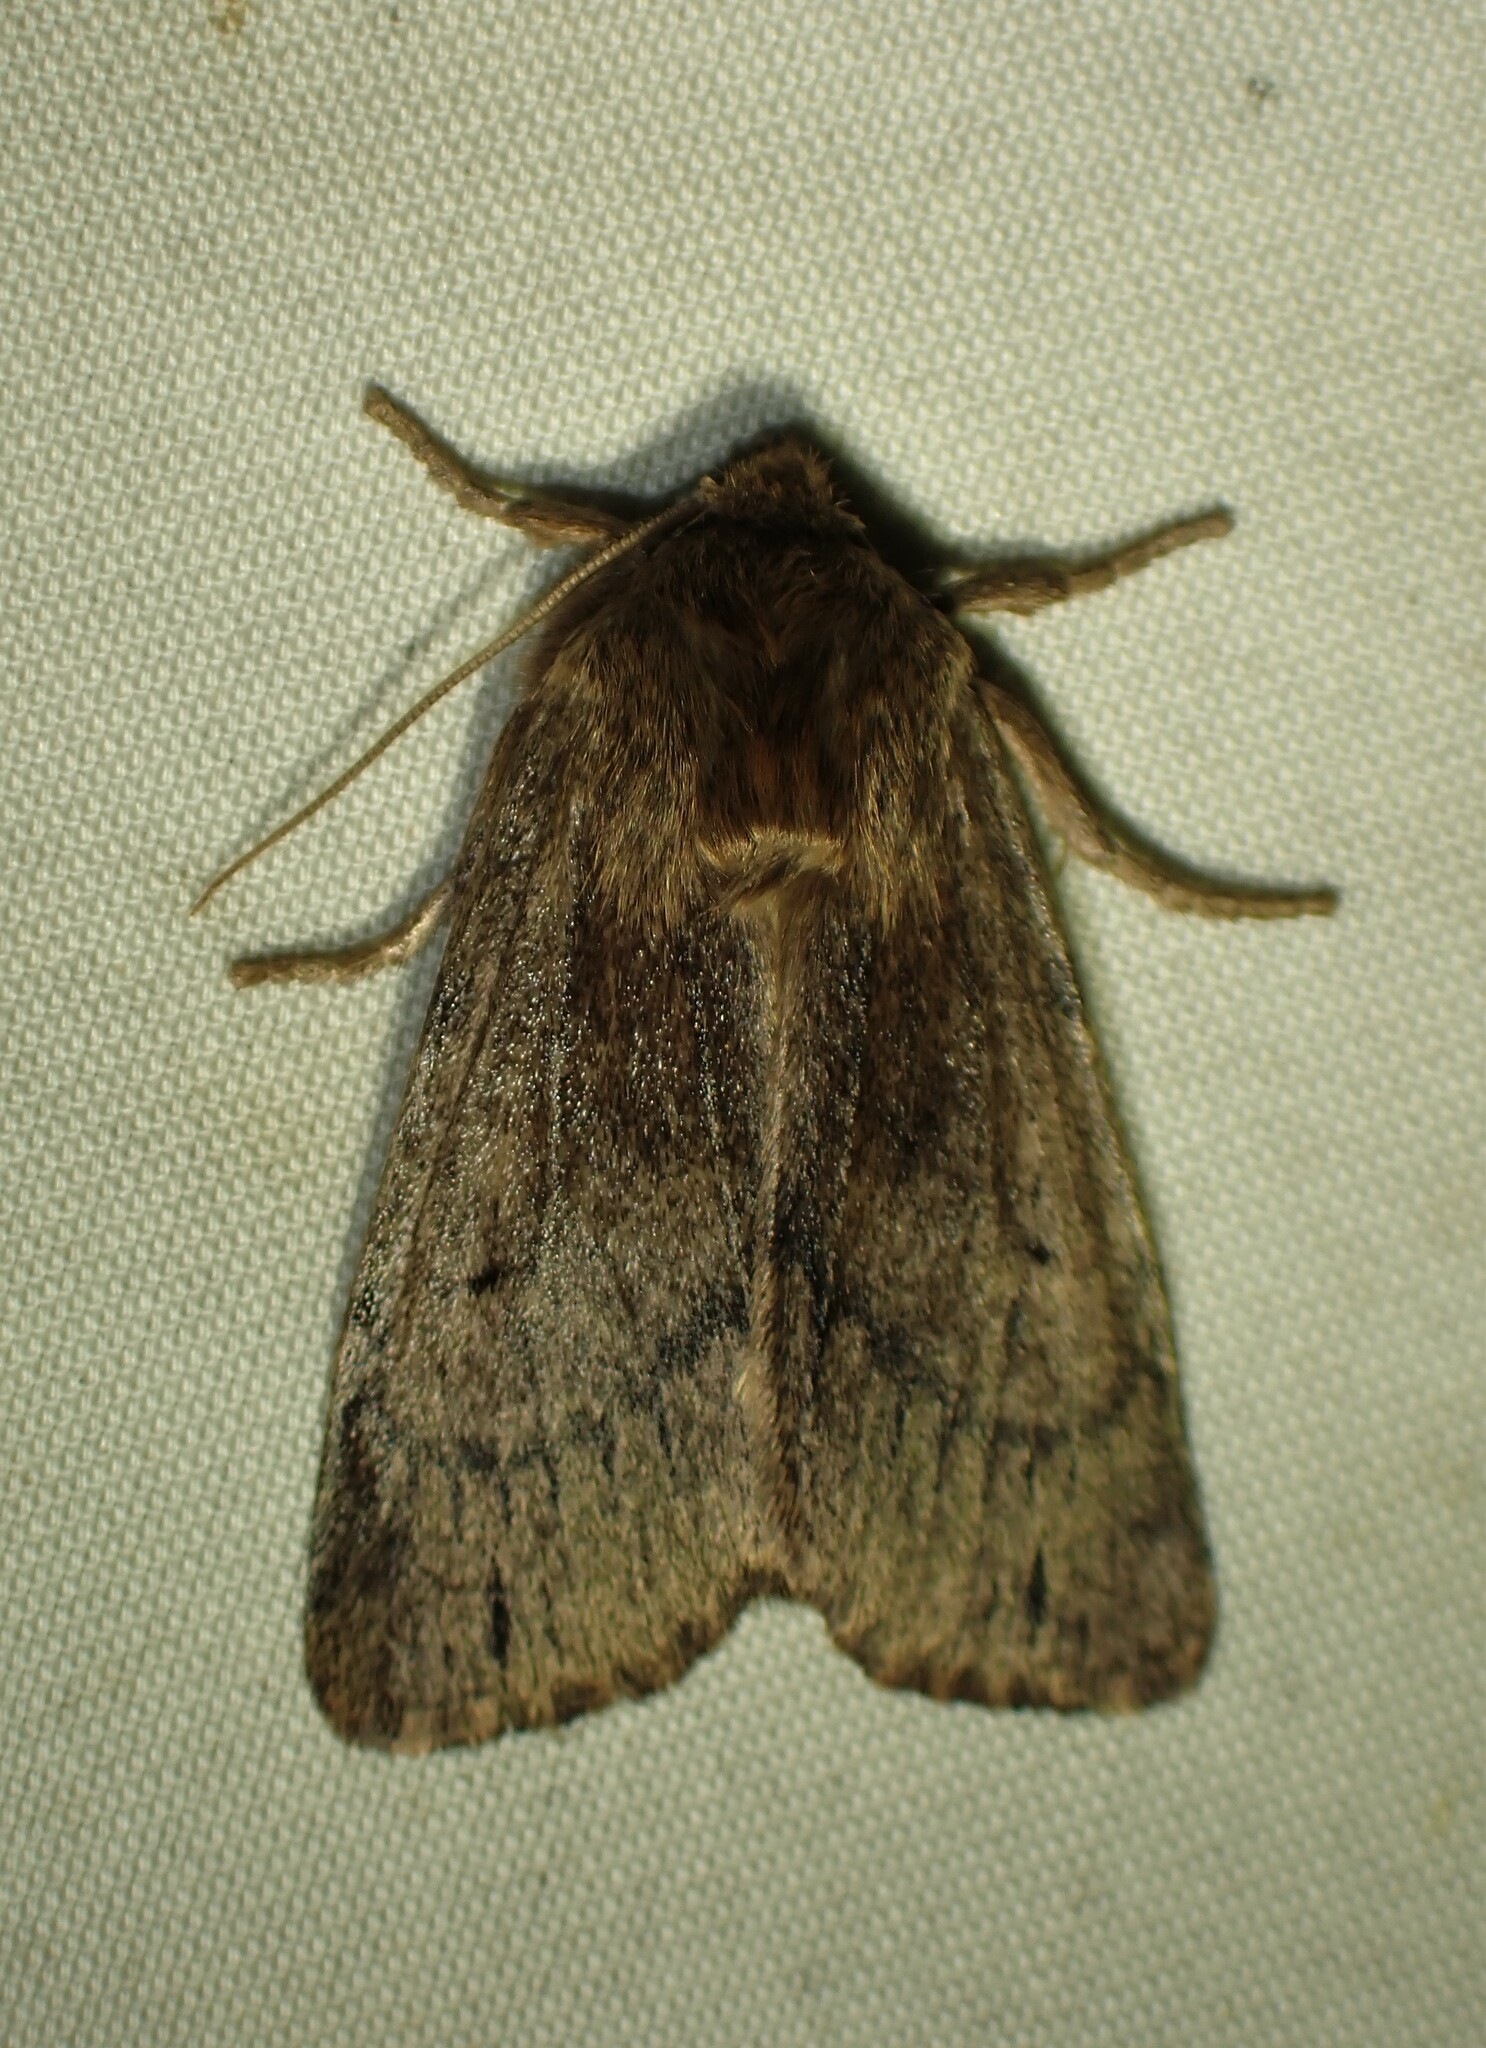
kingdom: Animalia
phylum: Arthropoda
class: Insecta
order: Lepidoptera
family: Noctuidae
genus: Ufeus
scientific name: Ufeus satyricus
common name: Brown satyr moth
